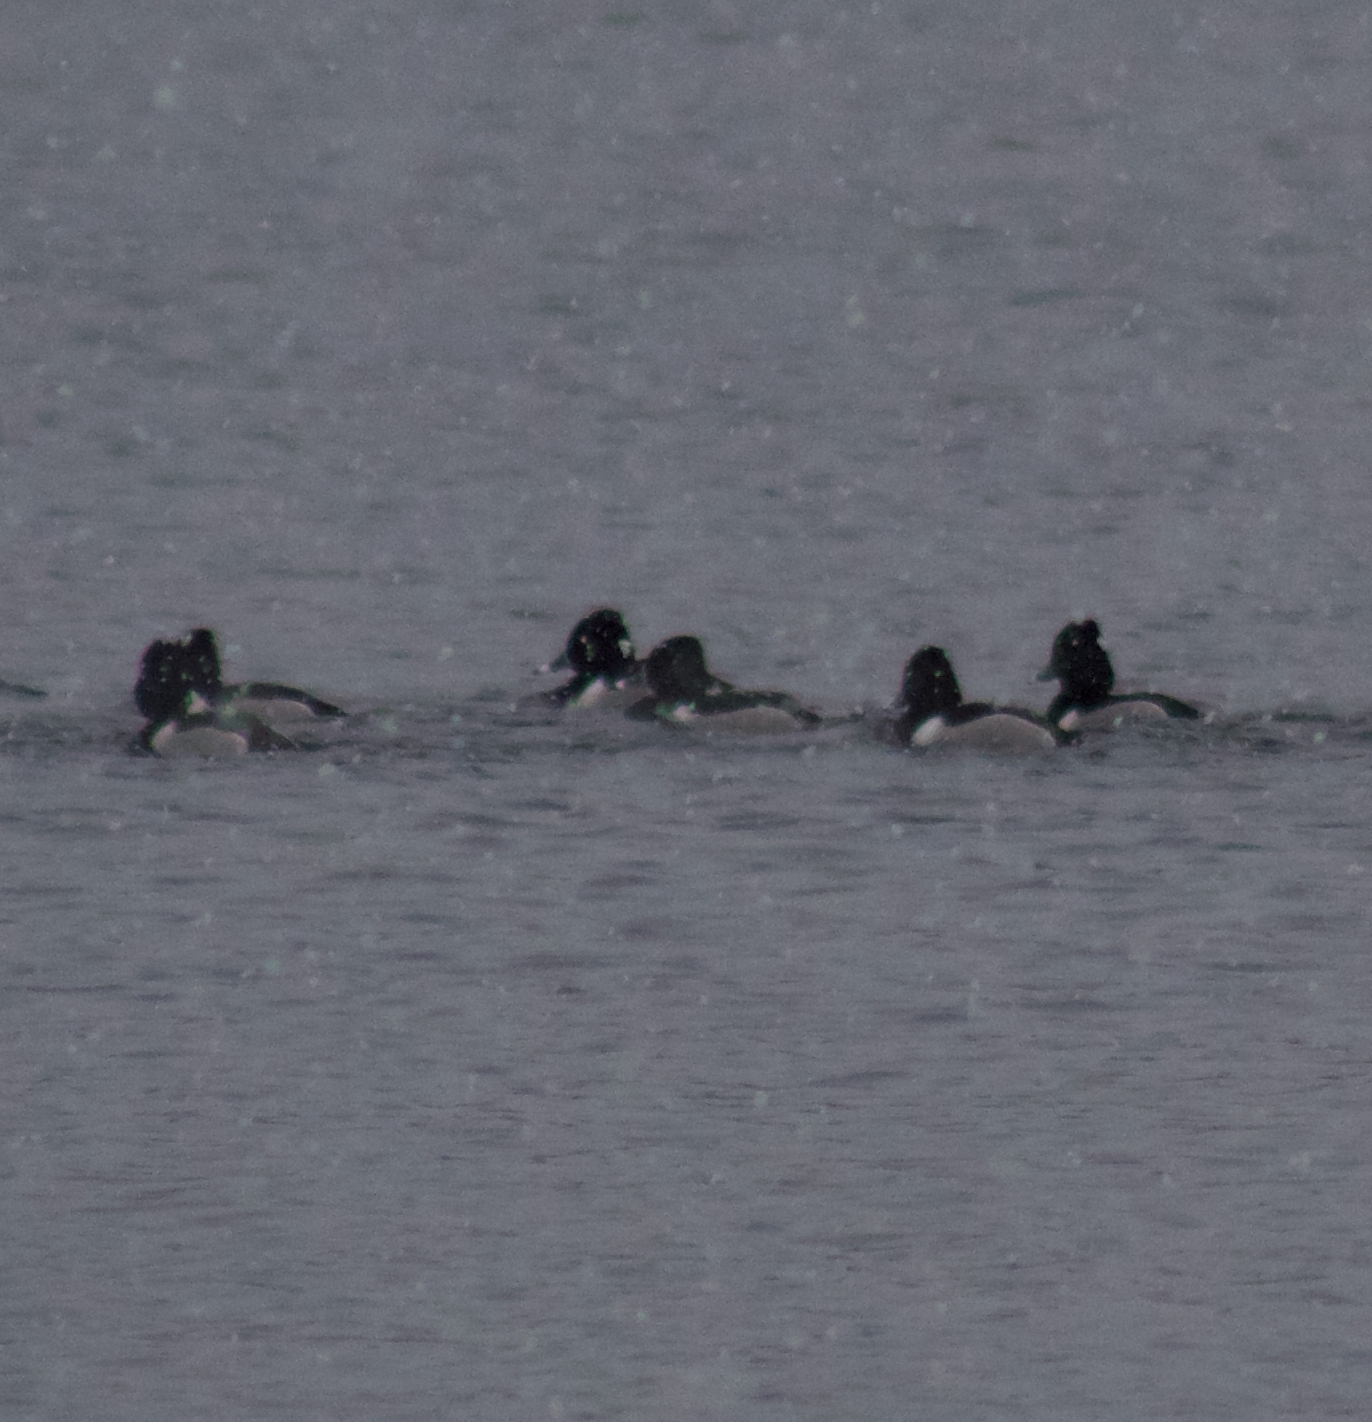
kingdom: Animalia
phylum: Chordata
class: Aves
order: Anseriformes
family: Anatidae
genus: Aythya
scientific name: Aythya collaris
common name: Ring-necked duck
